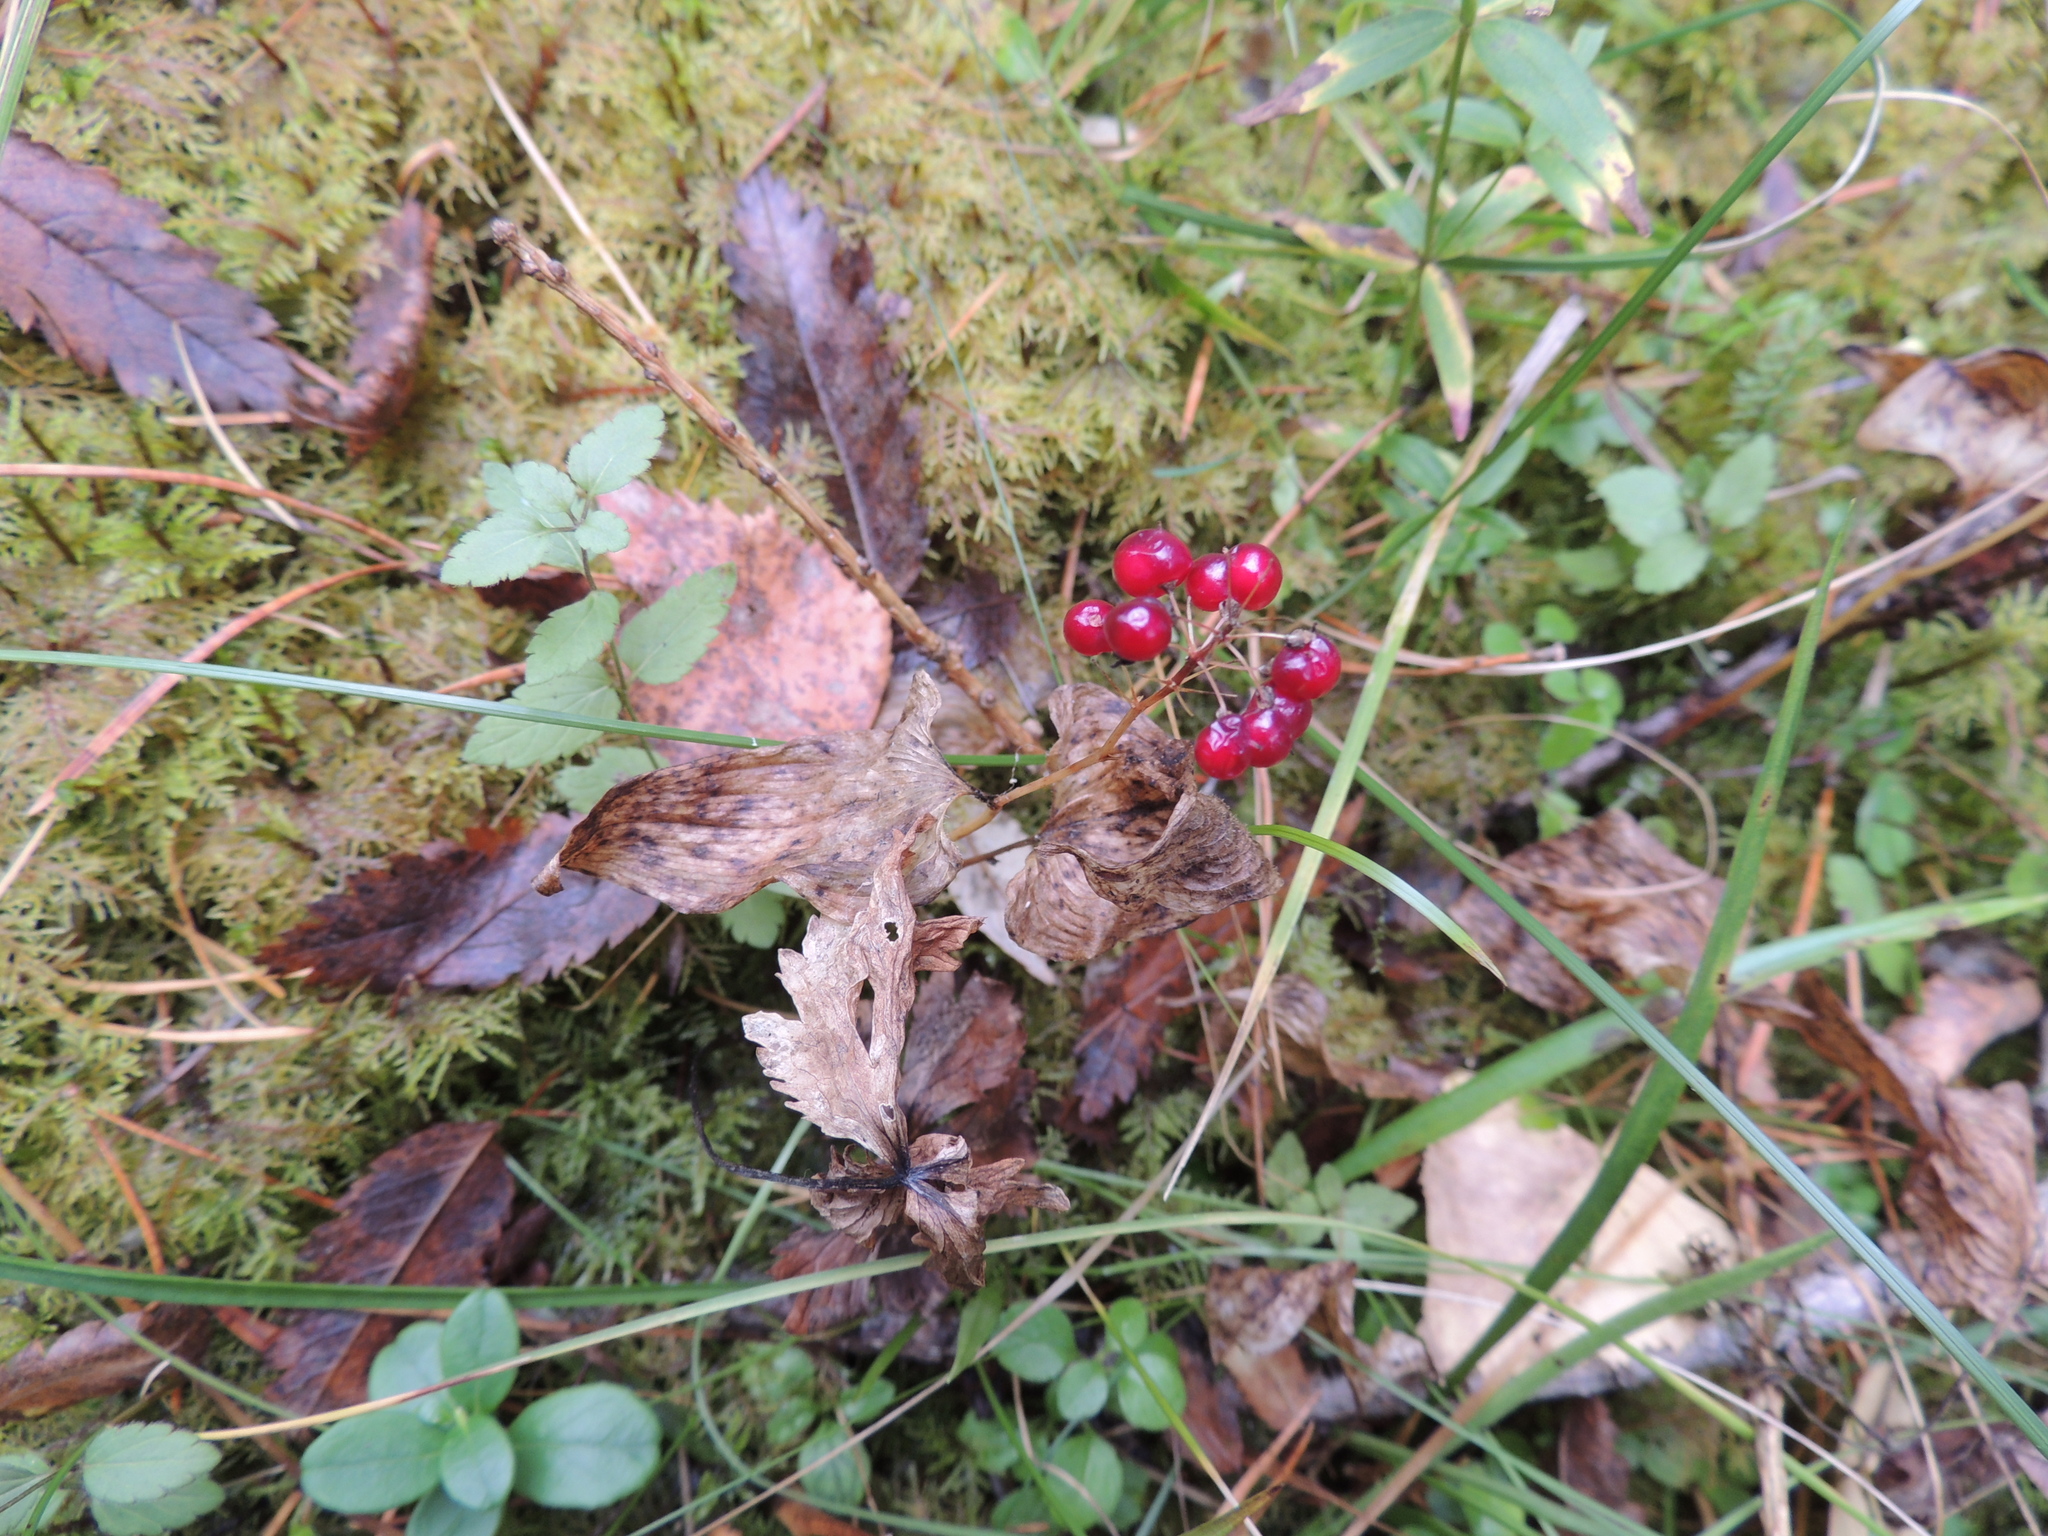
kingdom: Plantae
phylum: Tracheophyta
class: Liliopsida
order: Asparagales
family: Asparagaceae
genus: Maianthemum
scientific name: Maianthemum bifolium
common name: May lily
